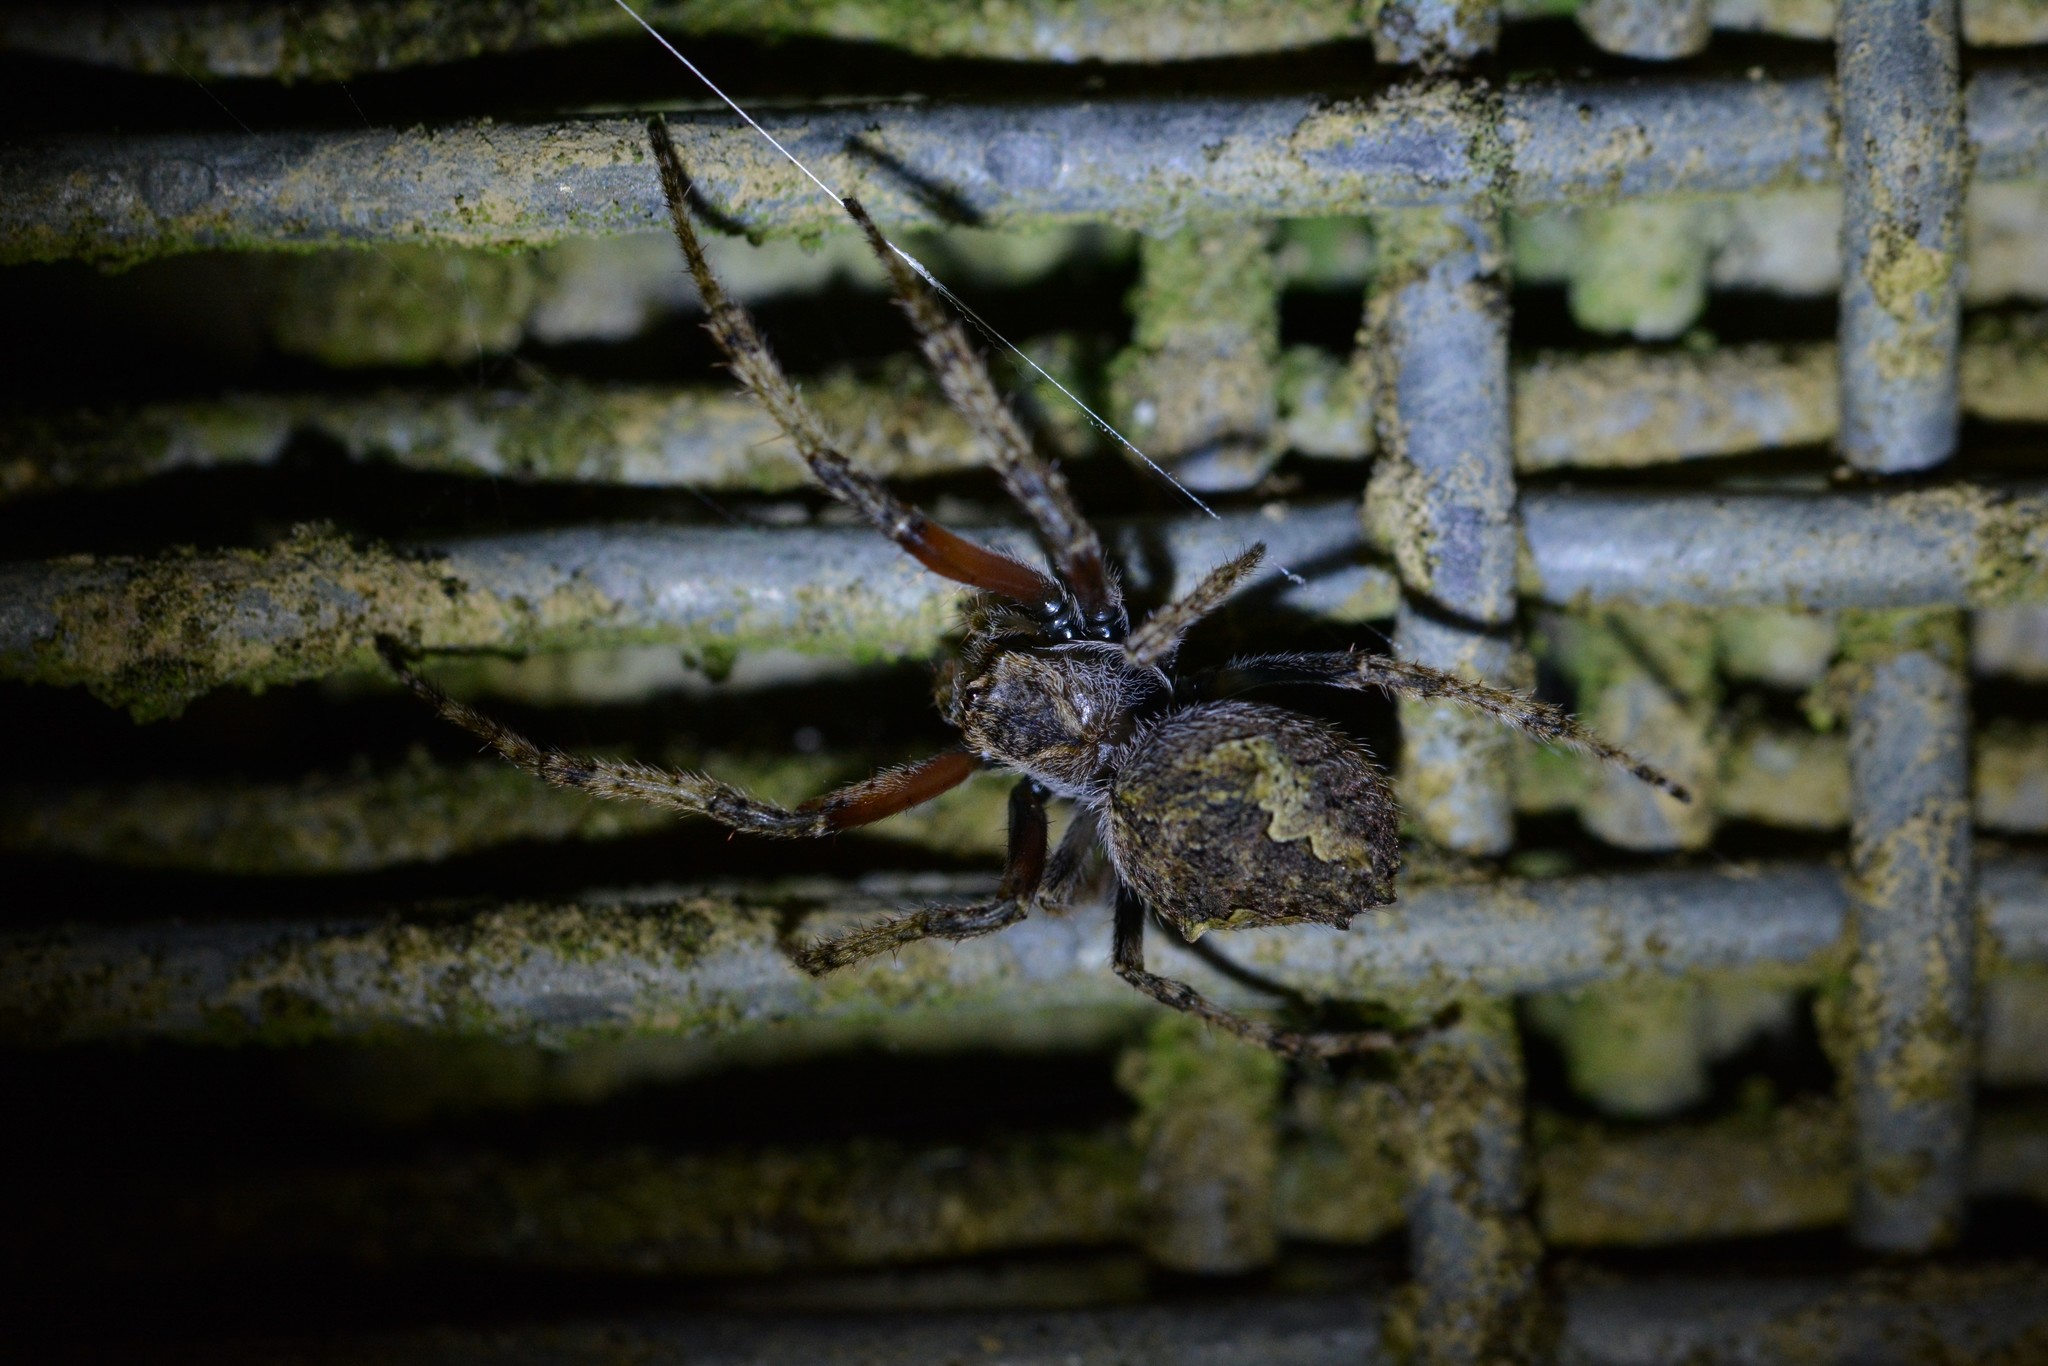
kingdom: Animalia
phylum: Arthropoda
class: Arachnida
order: Araneae
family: Araneidae
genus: Eriophora
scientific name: Eriophora pustulosa
